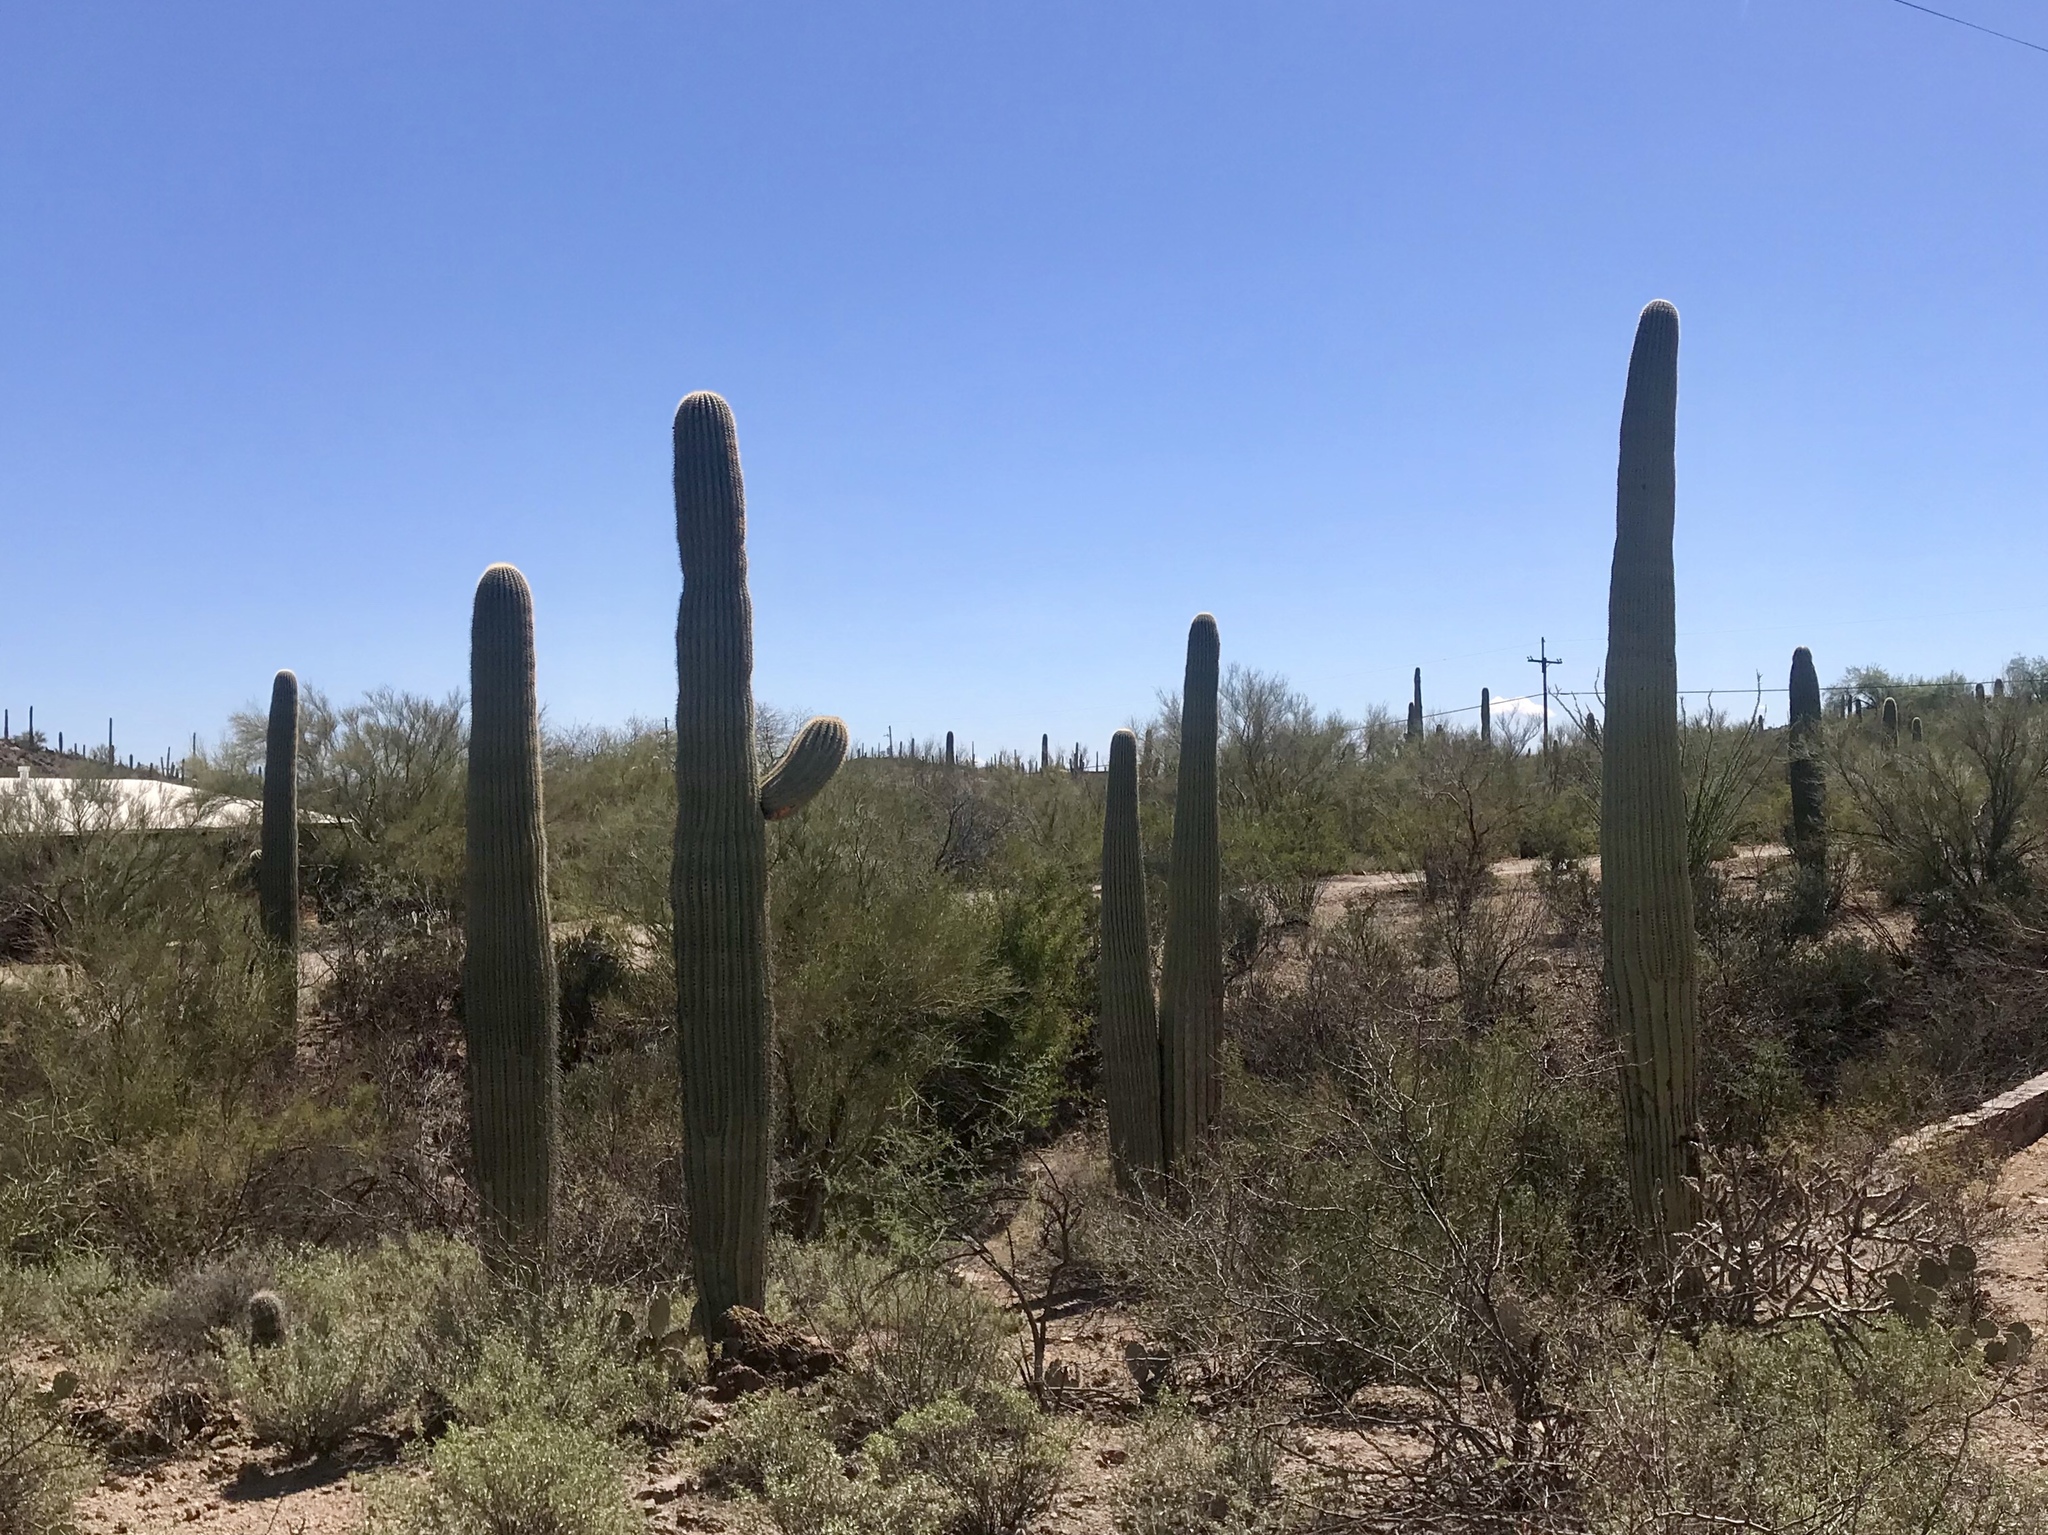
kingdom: Plantae
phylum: Tracheophyta
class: Magnoliopsida
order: Caryophyllales
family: Cactaceae
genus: Carnegiea
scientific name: Carnegiea gigantea
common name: Saguaro
